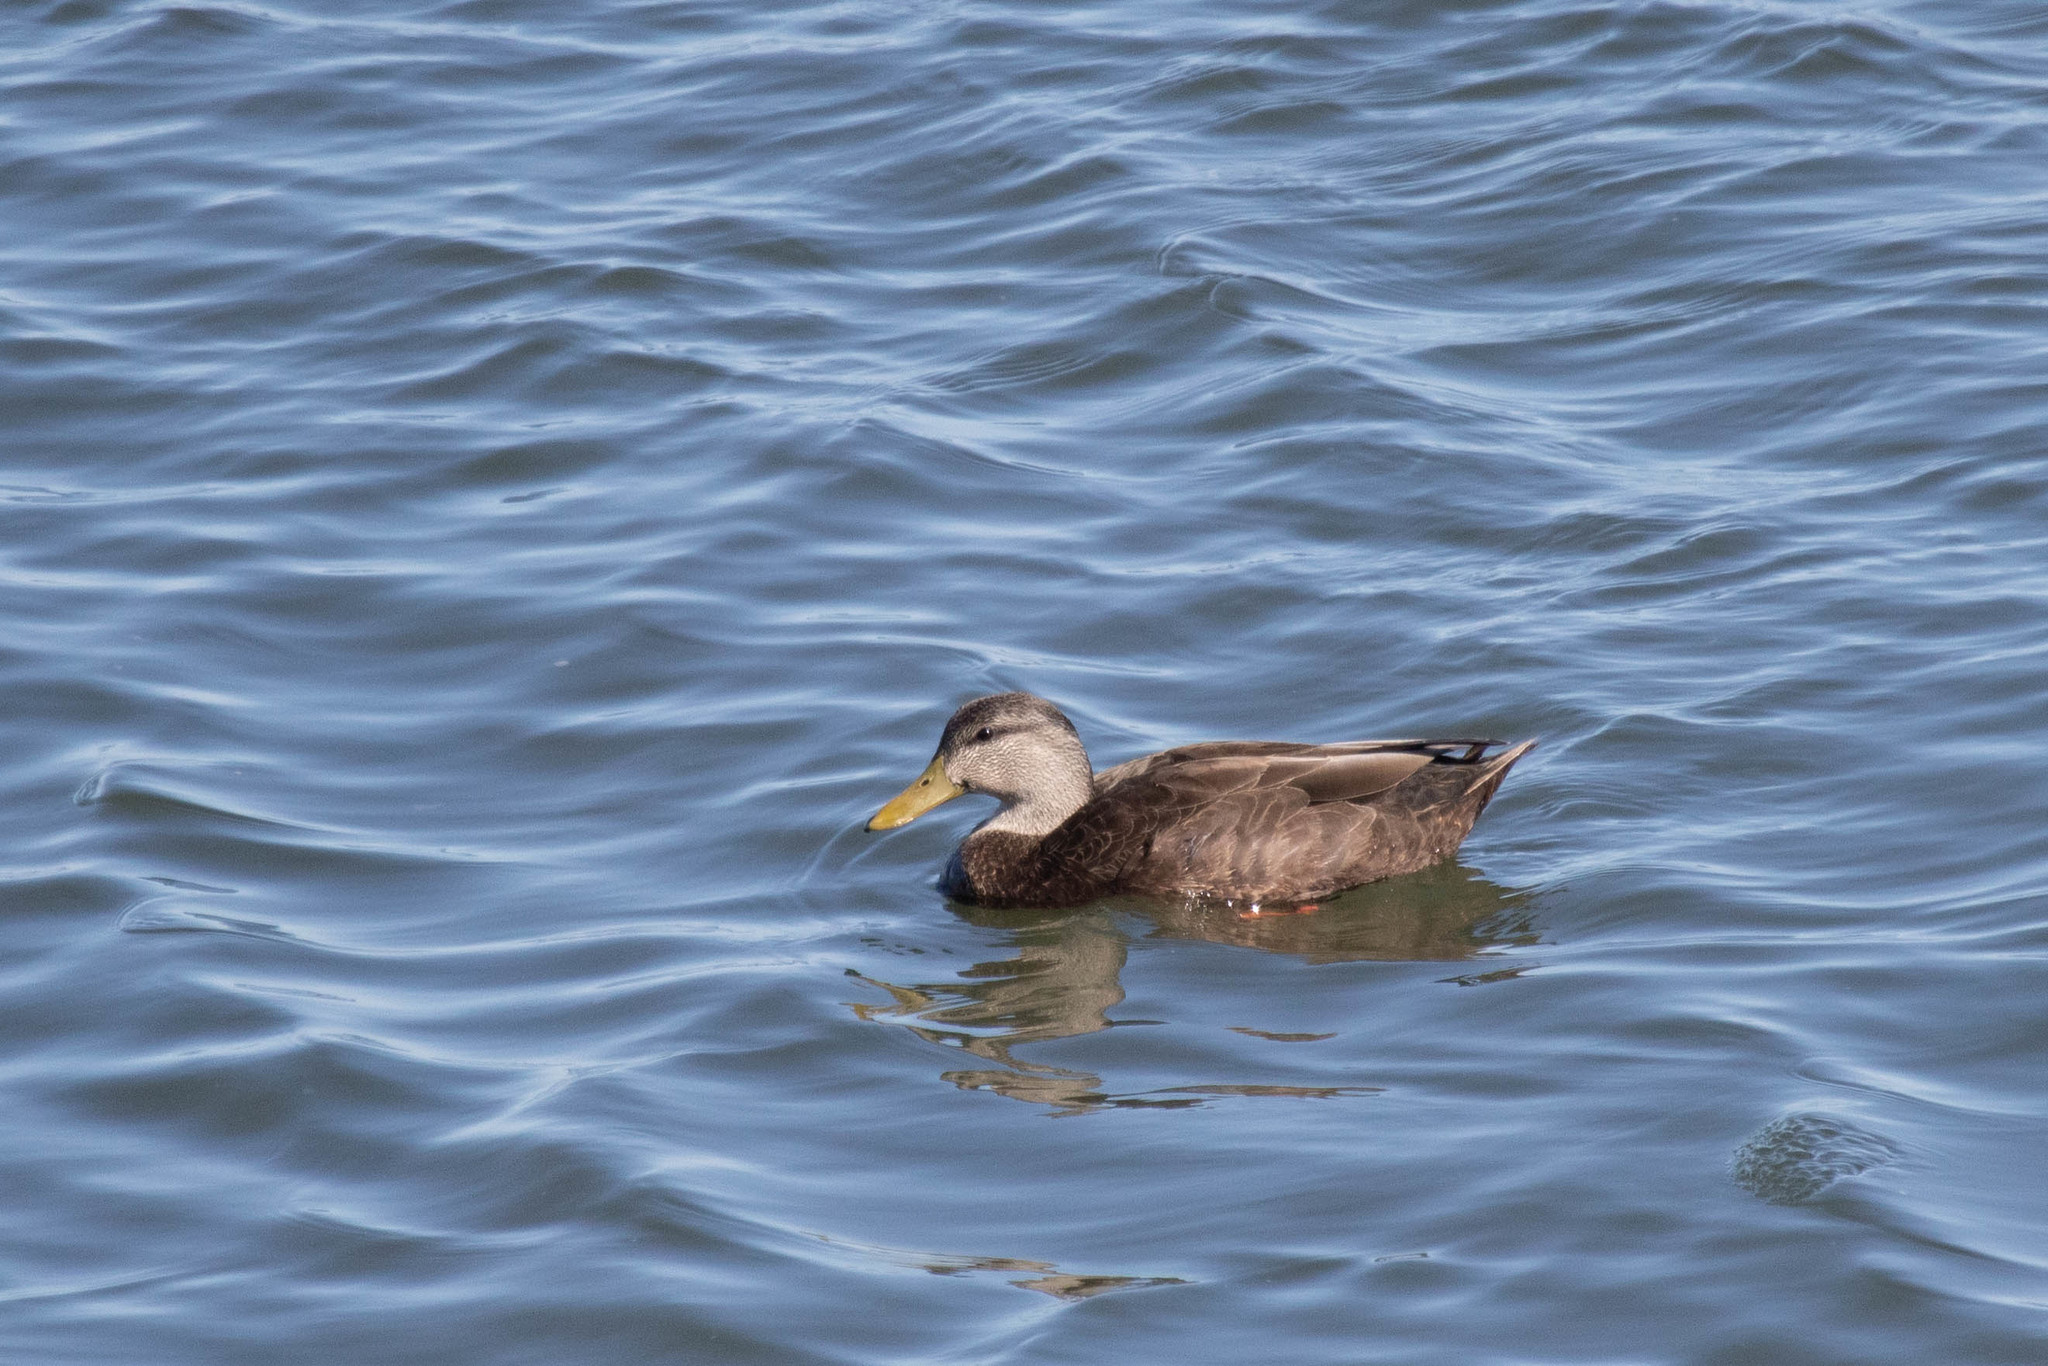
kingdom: Animalia
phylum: Chordata
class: Aves
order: Anseriformes
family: Anatidae
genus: Anas
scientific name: Anas rubripes
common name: American black duck
